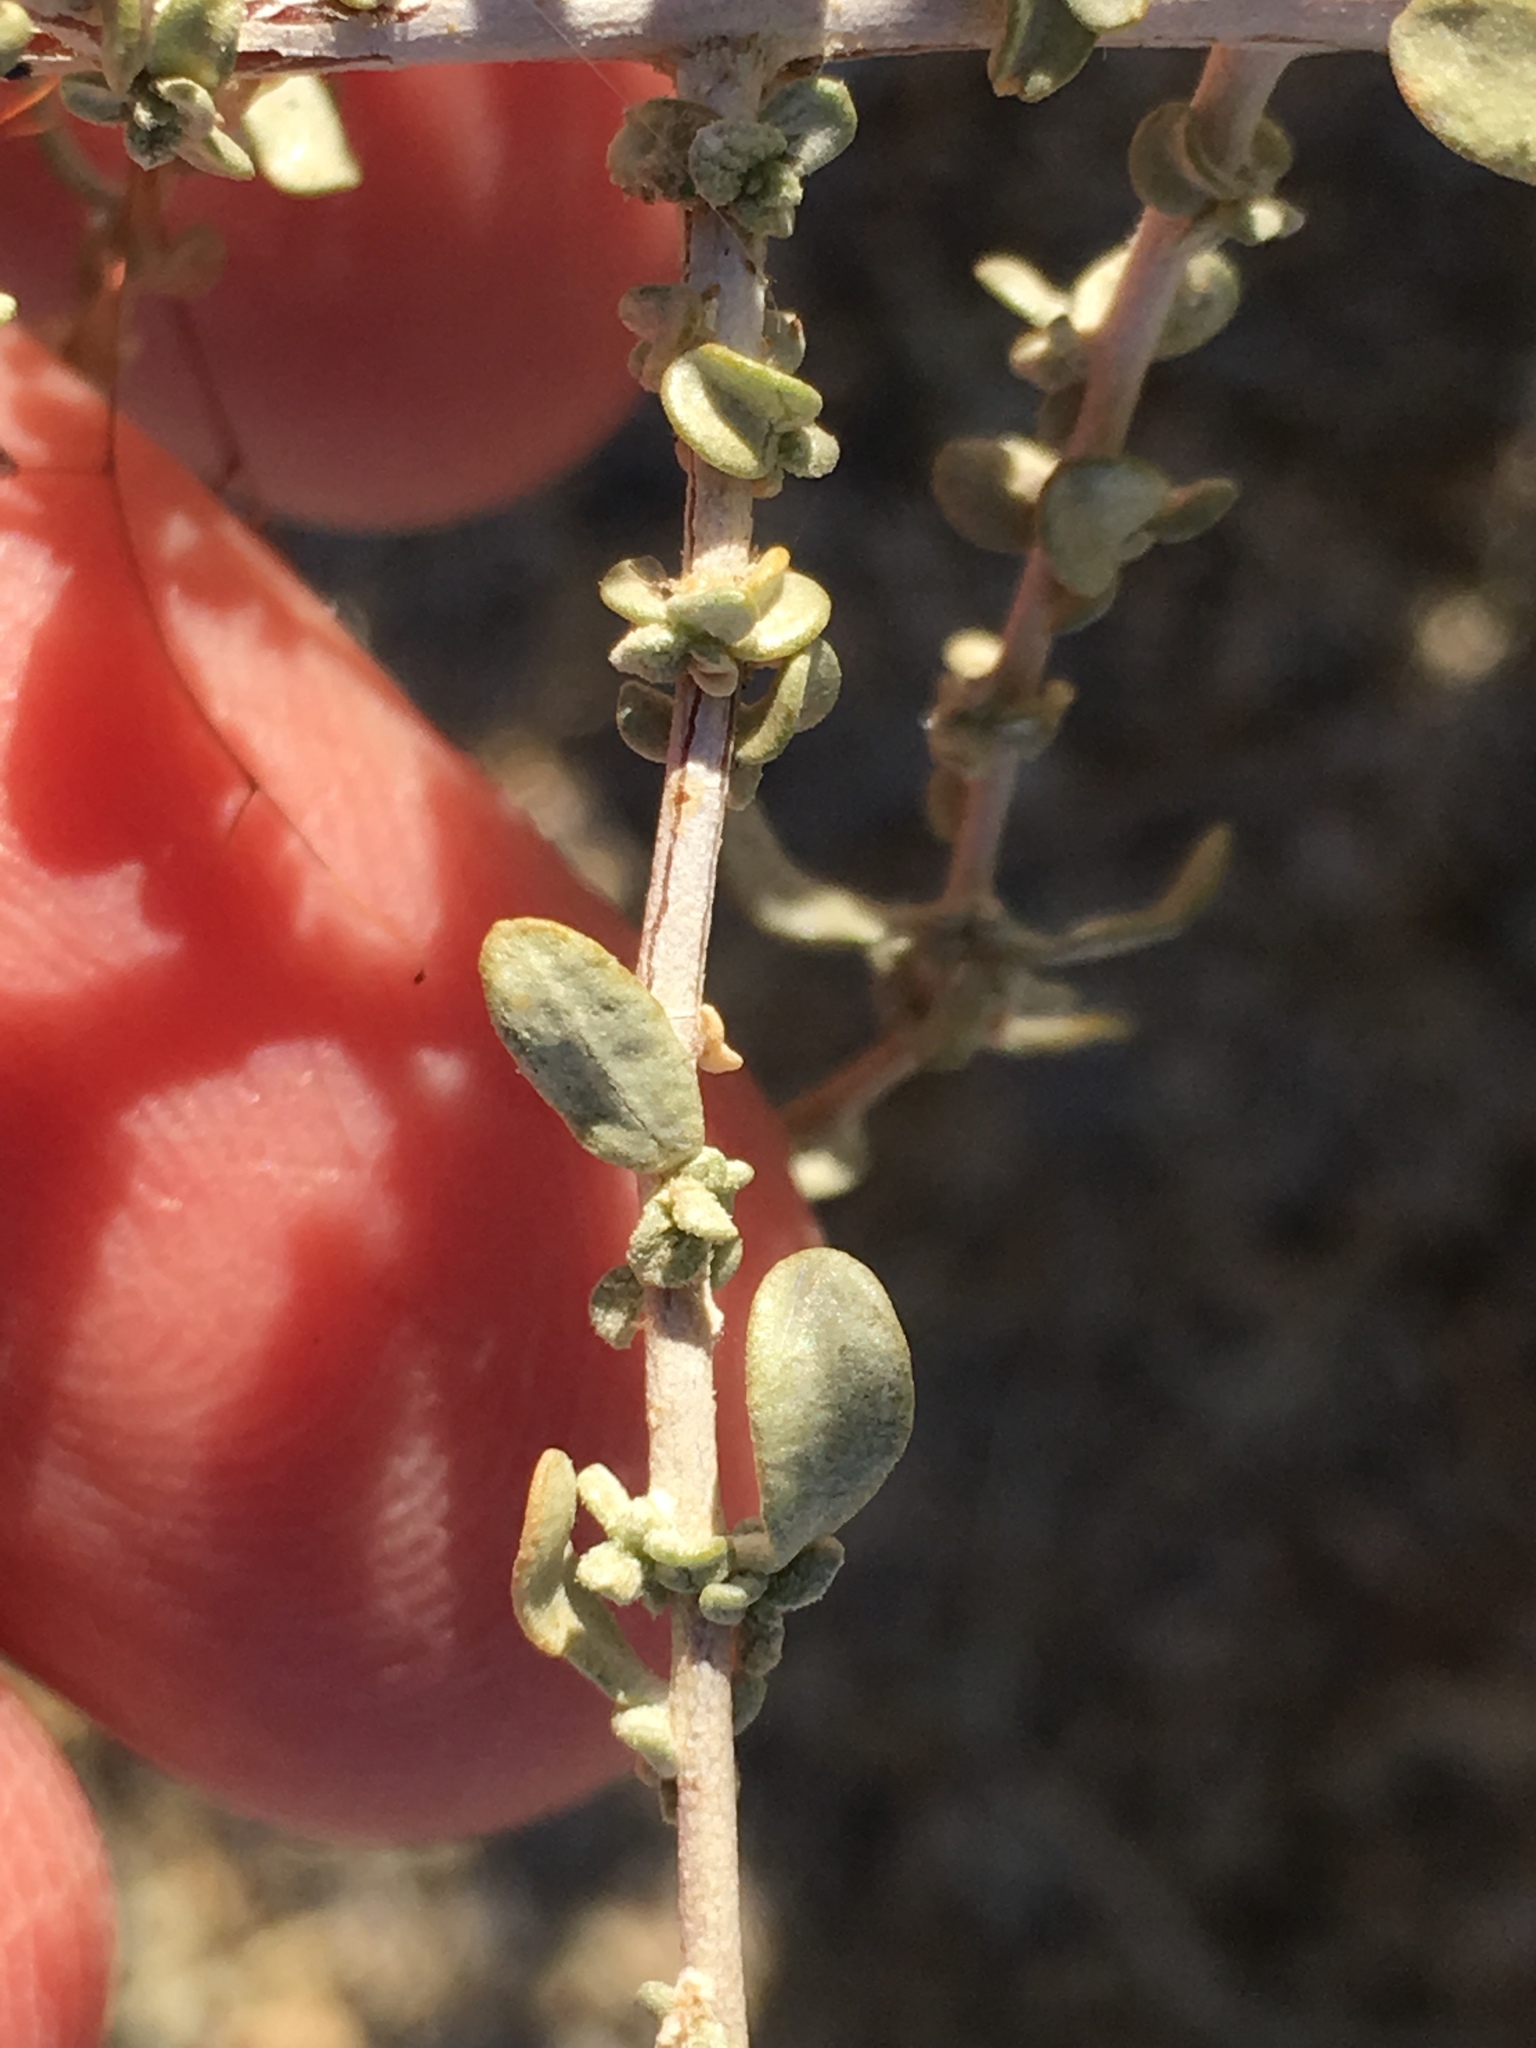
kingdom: Plantae
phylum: Tracheophyta
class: Magnoliopsida
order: Caryophyllales
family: Amaranthaceae
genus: Atriplex
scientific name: Atriplex polycarpa
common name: Desert saltbush
